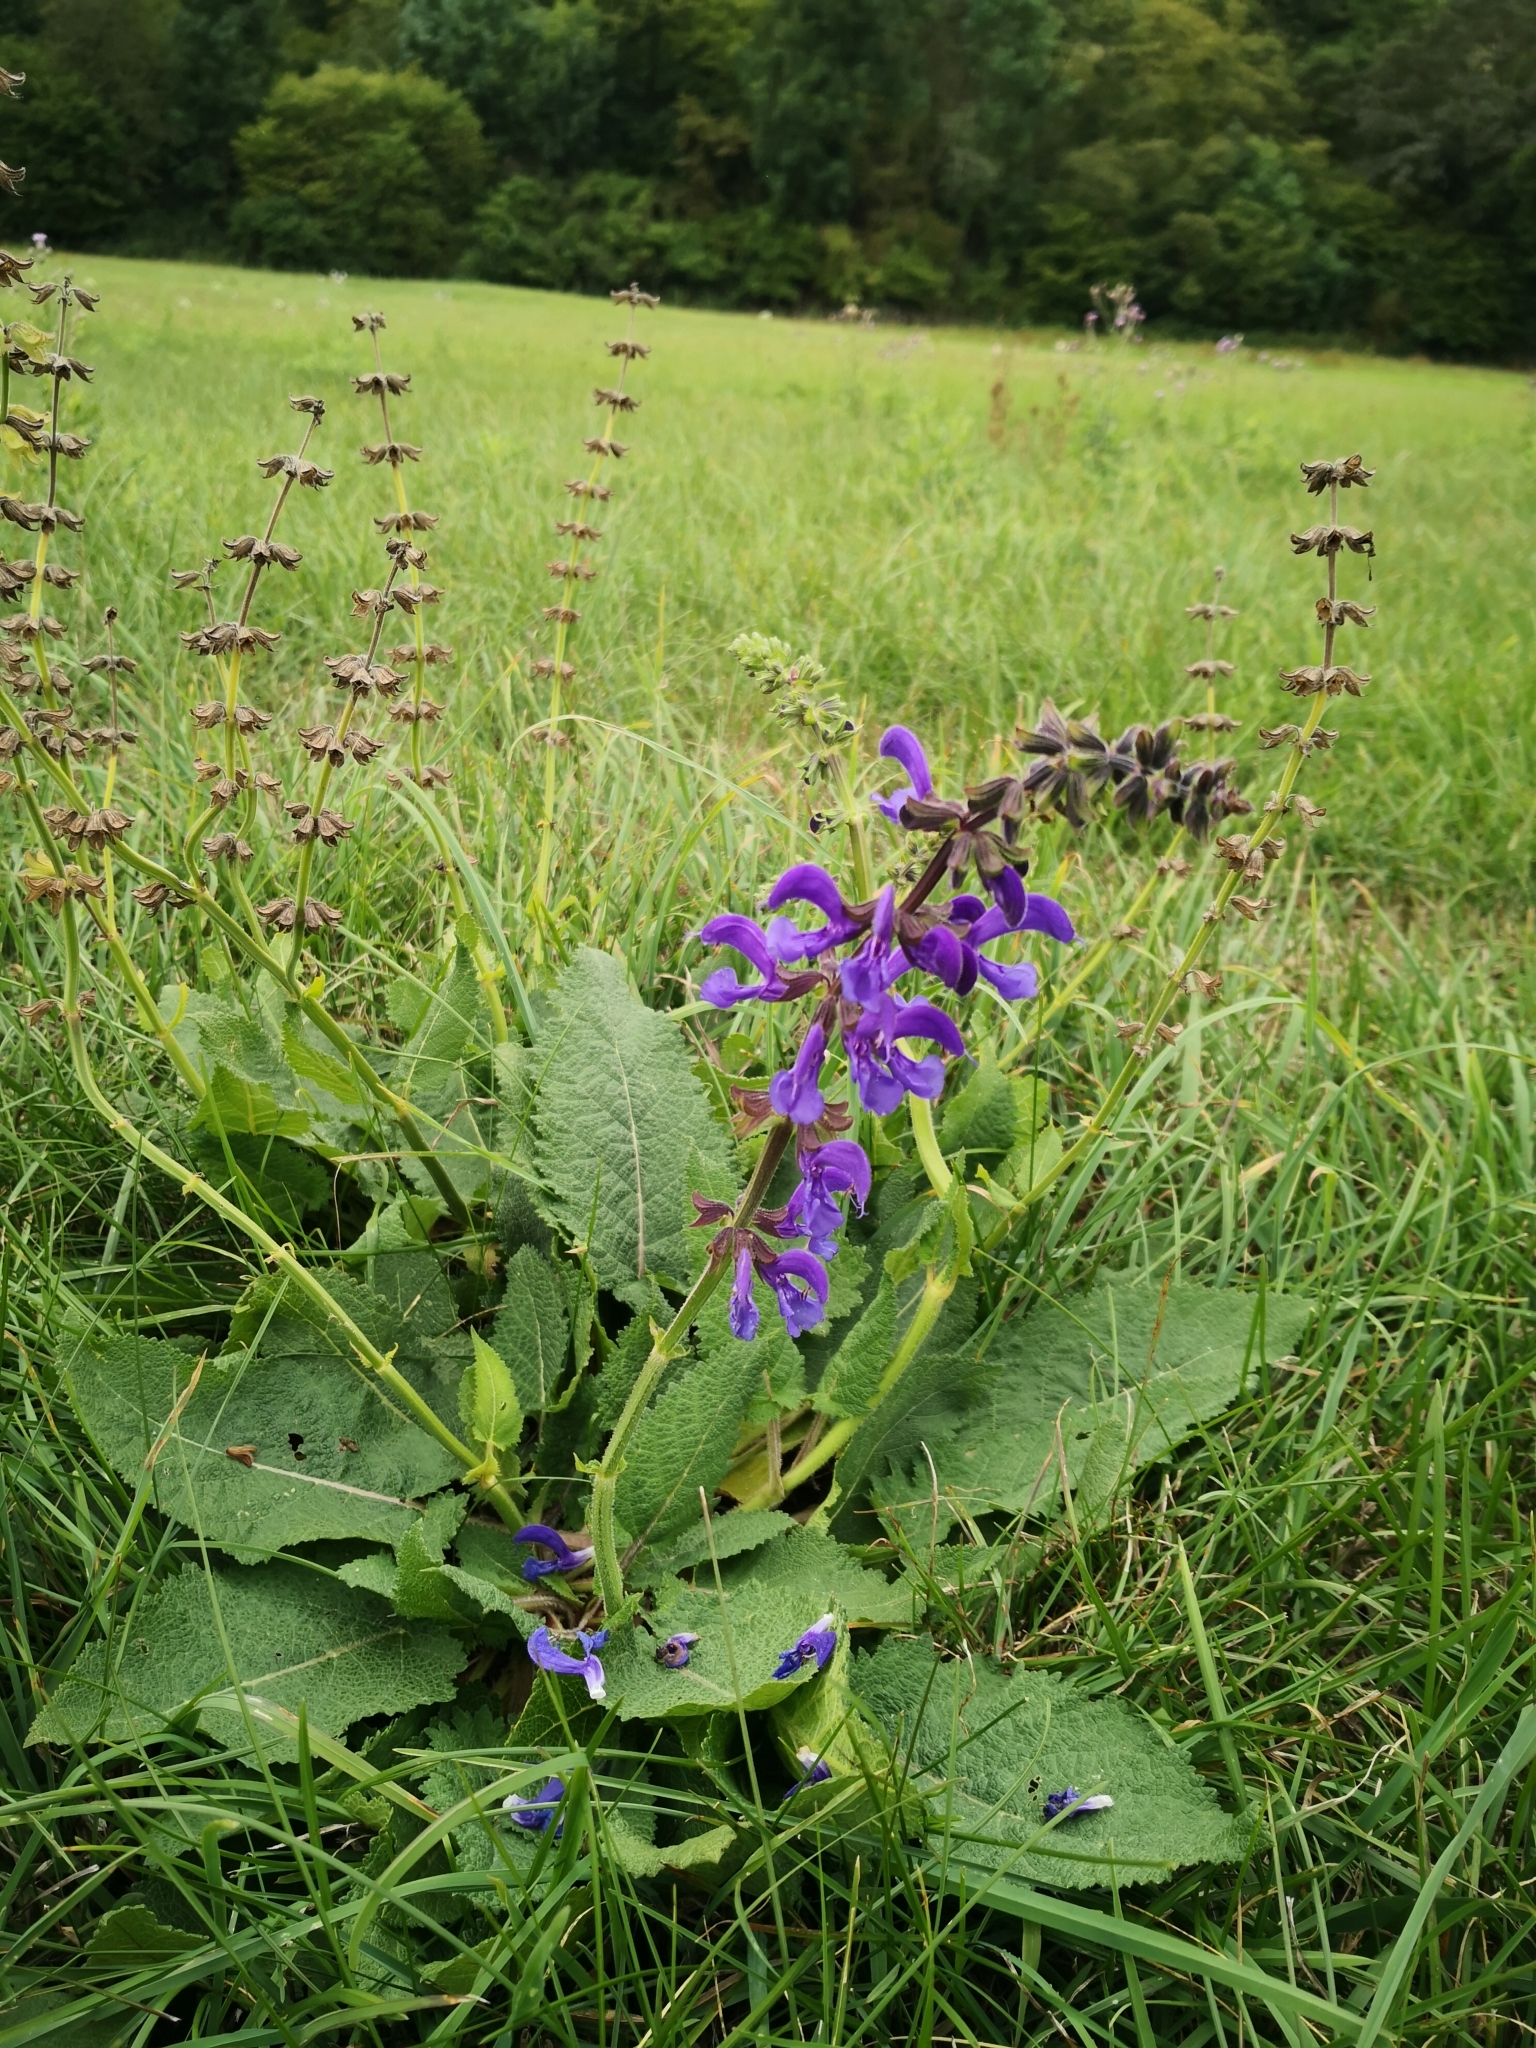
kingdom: Plantae
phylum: Tracheophyta
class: Magnoliopsida
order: Lamiales
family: Lamiaceae
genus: Salvia
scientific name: Salvia pratensis
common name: Meadow sage
